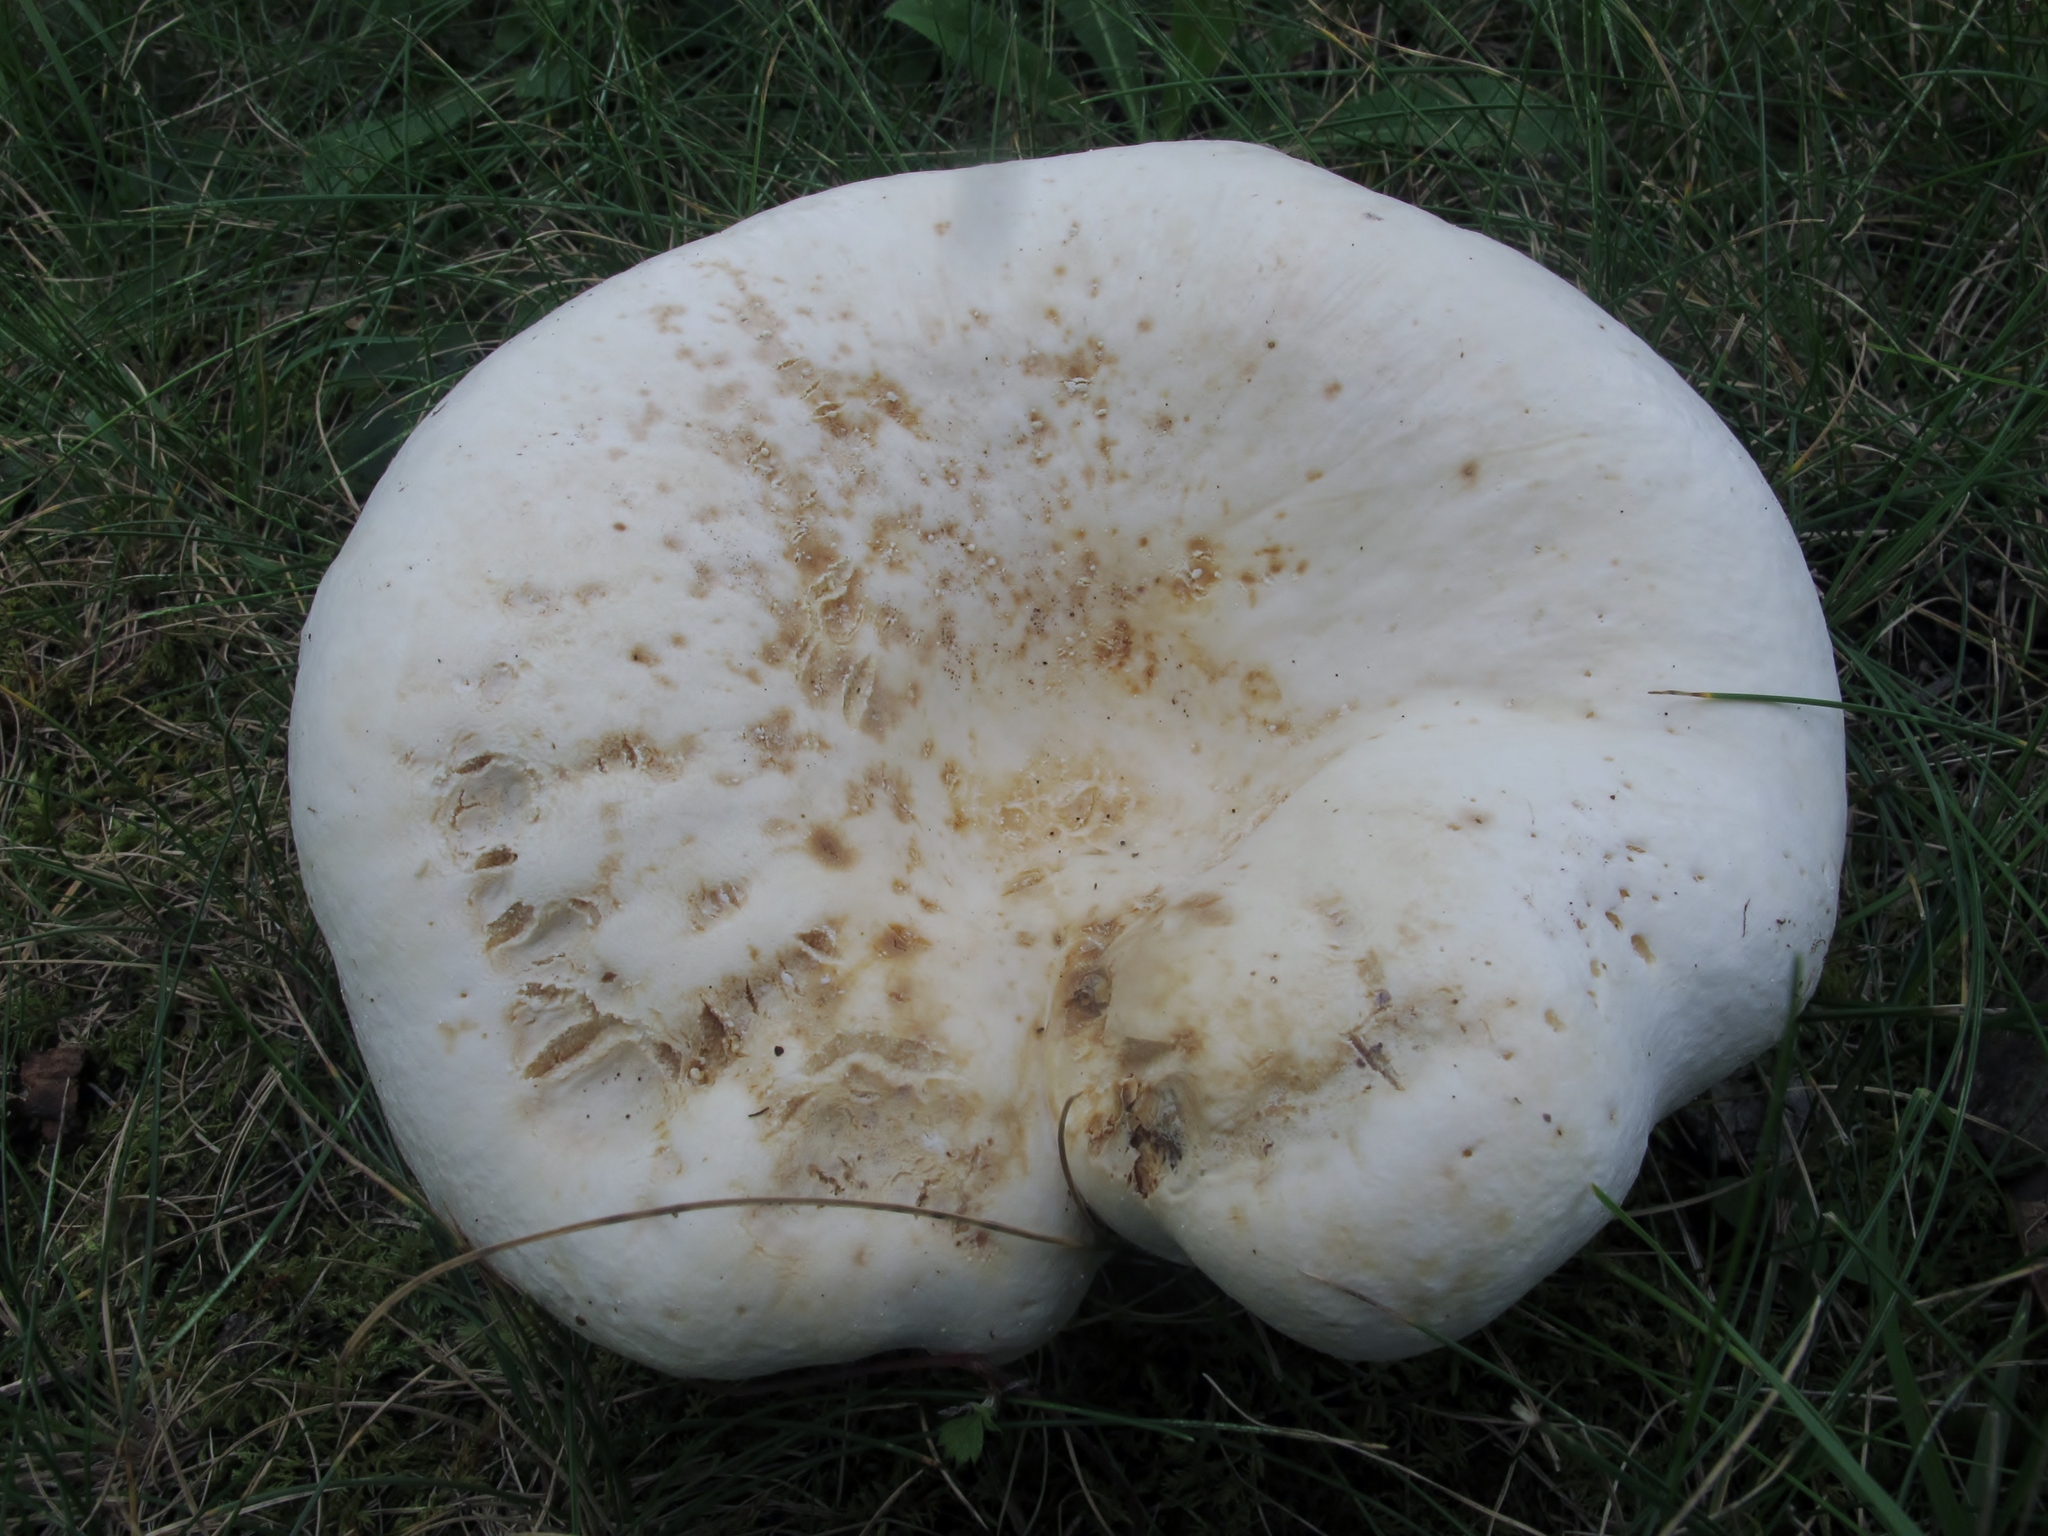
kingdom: Fungi
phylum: Basidiomycota
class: Agaricomycetes
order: Russulales
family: Russulaceae
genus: Lactifluus
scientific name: Lactifluus piperatus
